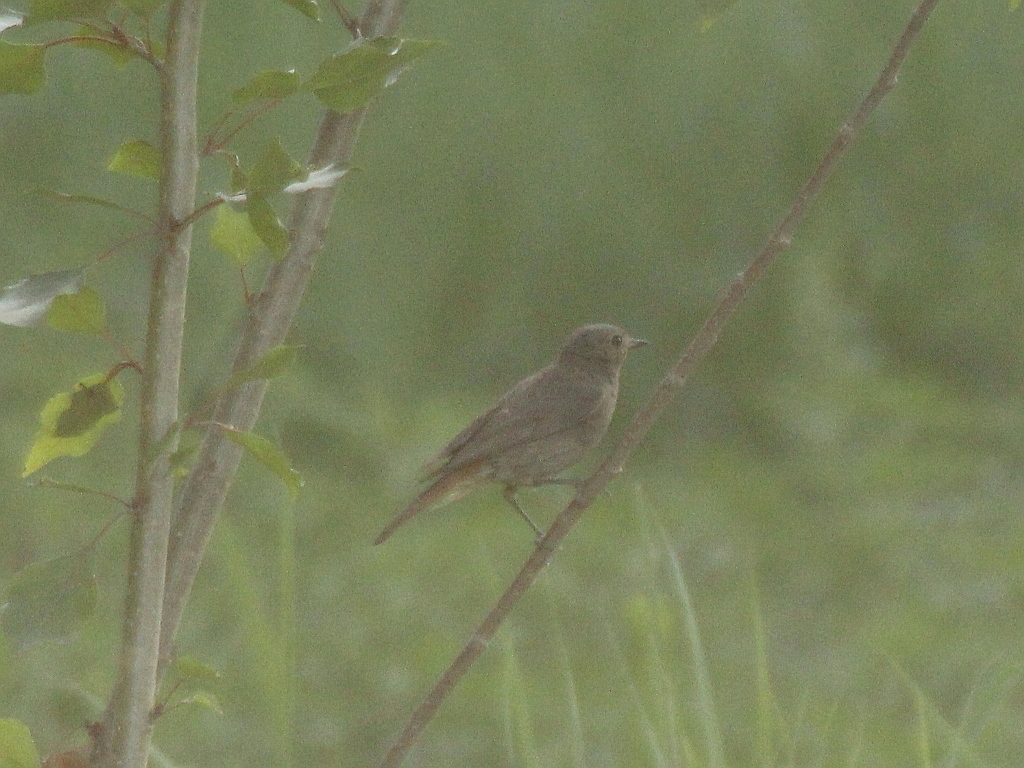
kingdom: Animalia
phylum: Chordata
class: Aves
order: Passeriformes
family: Muscicapidae
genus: Phoenicurus
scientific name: Phoenicurus ochruros
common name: Black redstart
